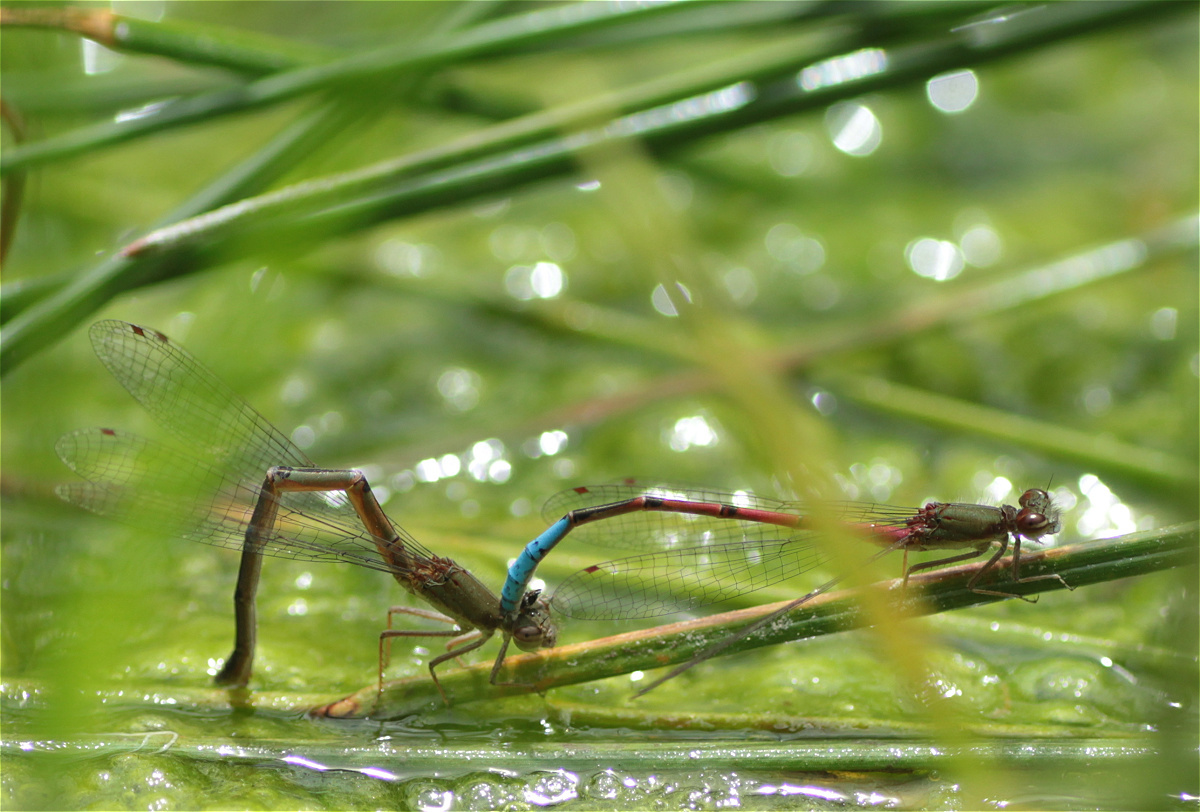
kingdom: Animalia
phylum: Arthropoda
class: Insecta
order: Odonata
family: Coenagrionidae
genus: Oxyallagma
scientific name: Oxyallagma dissidens
